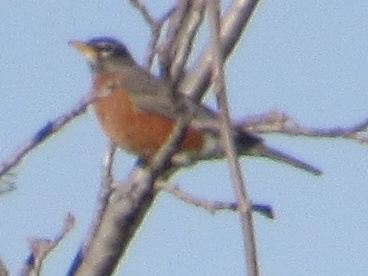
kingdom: Animalia
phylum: Chordata
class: Aves
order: Passeriformes
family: Turdidae
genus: Turdus
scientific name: Turdus migratorius
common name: American robin
